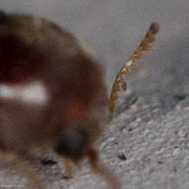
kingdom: Animalia
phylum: Arthropoda
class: Insecta
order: Coleoptera
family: Anobiidae
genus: Mesocoelopus
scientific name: Mesocoelopus collaris
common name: Wood-boring beetle
